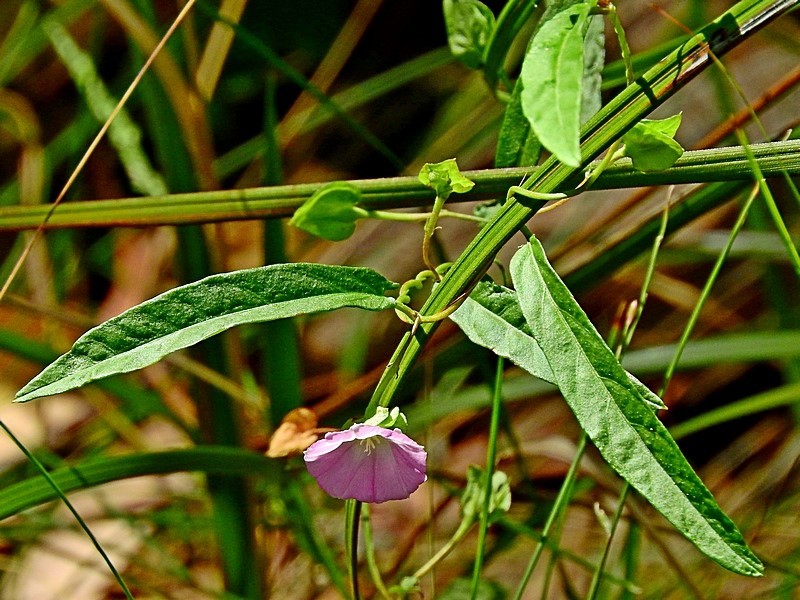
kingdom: Plantae
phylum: Tracheophyta
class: Magnoliopsida
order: Solanales
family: Convolvulaceae
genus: Polymeria
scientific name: Polymeria calycina
